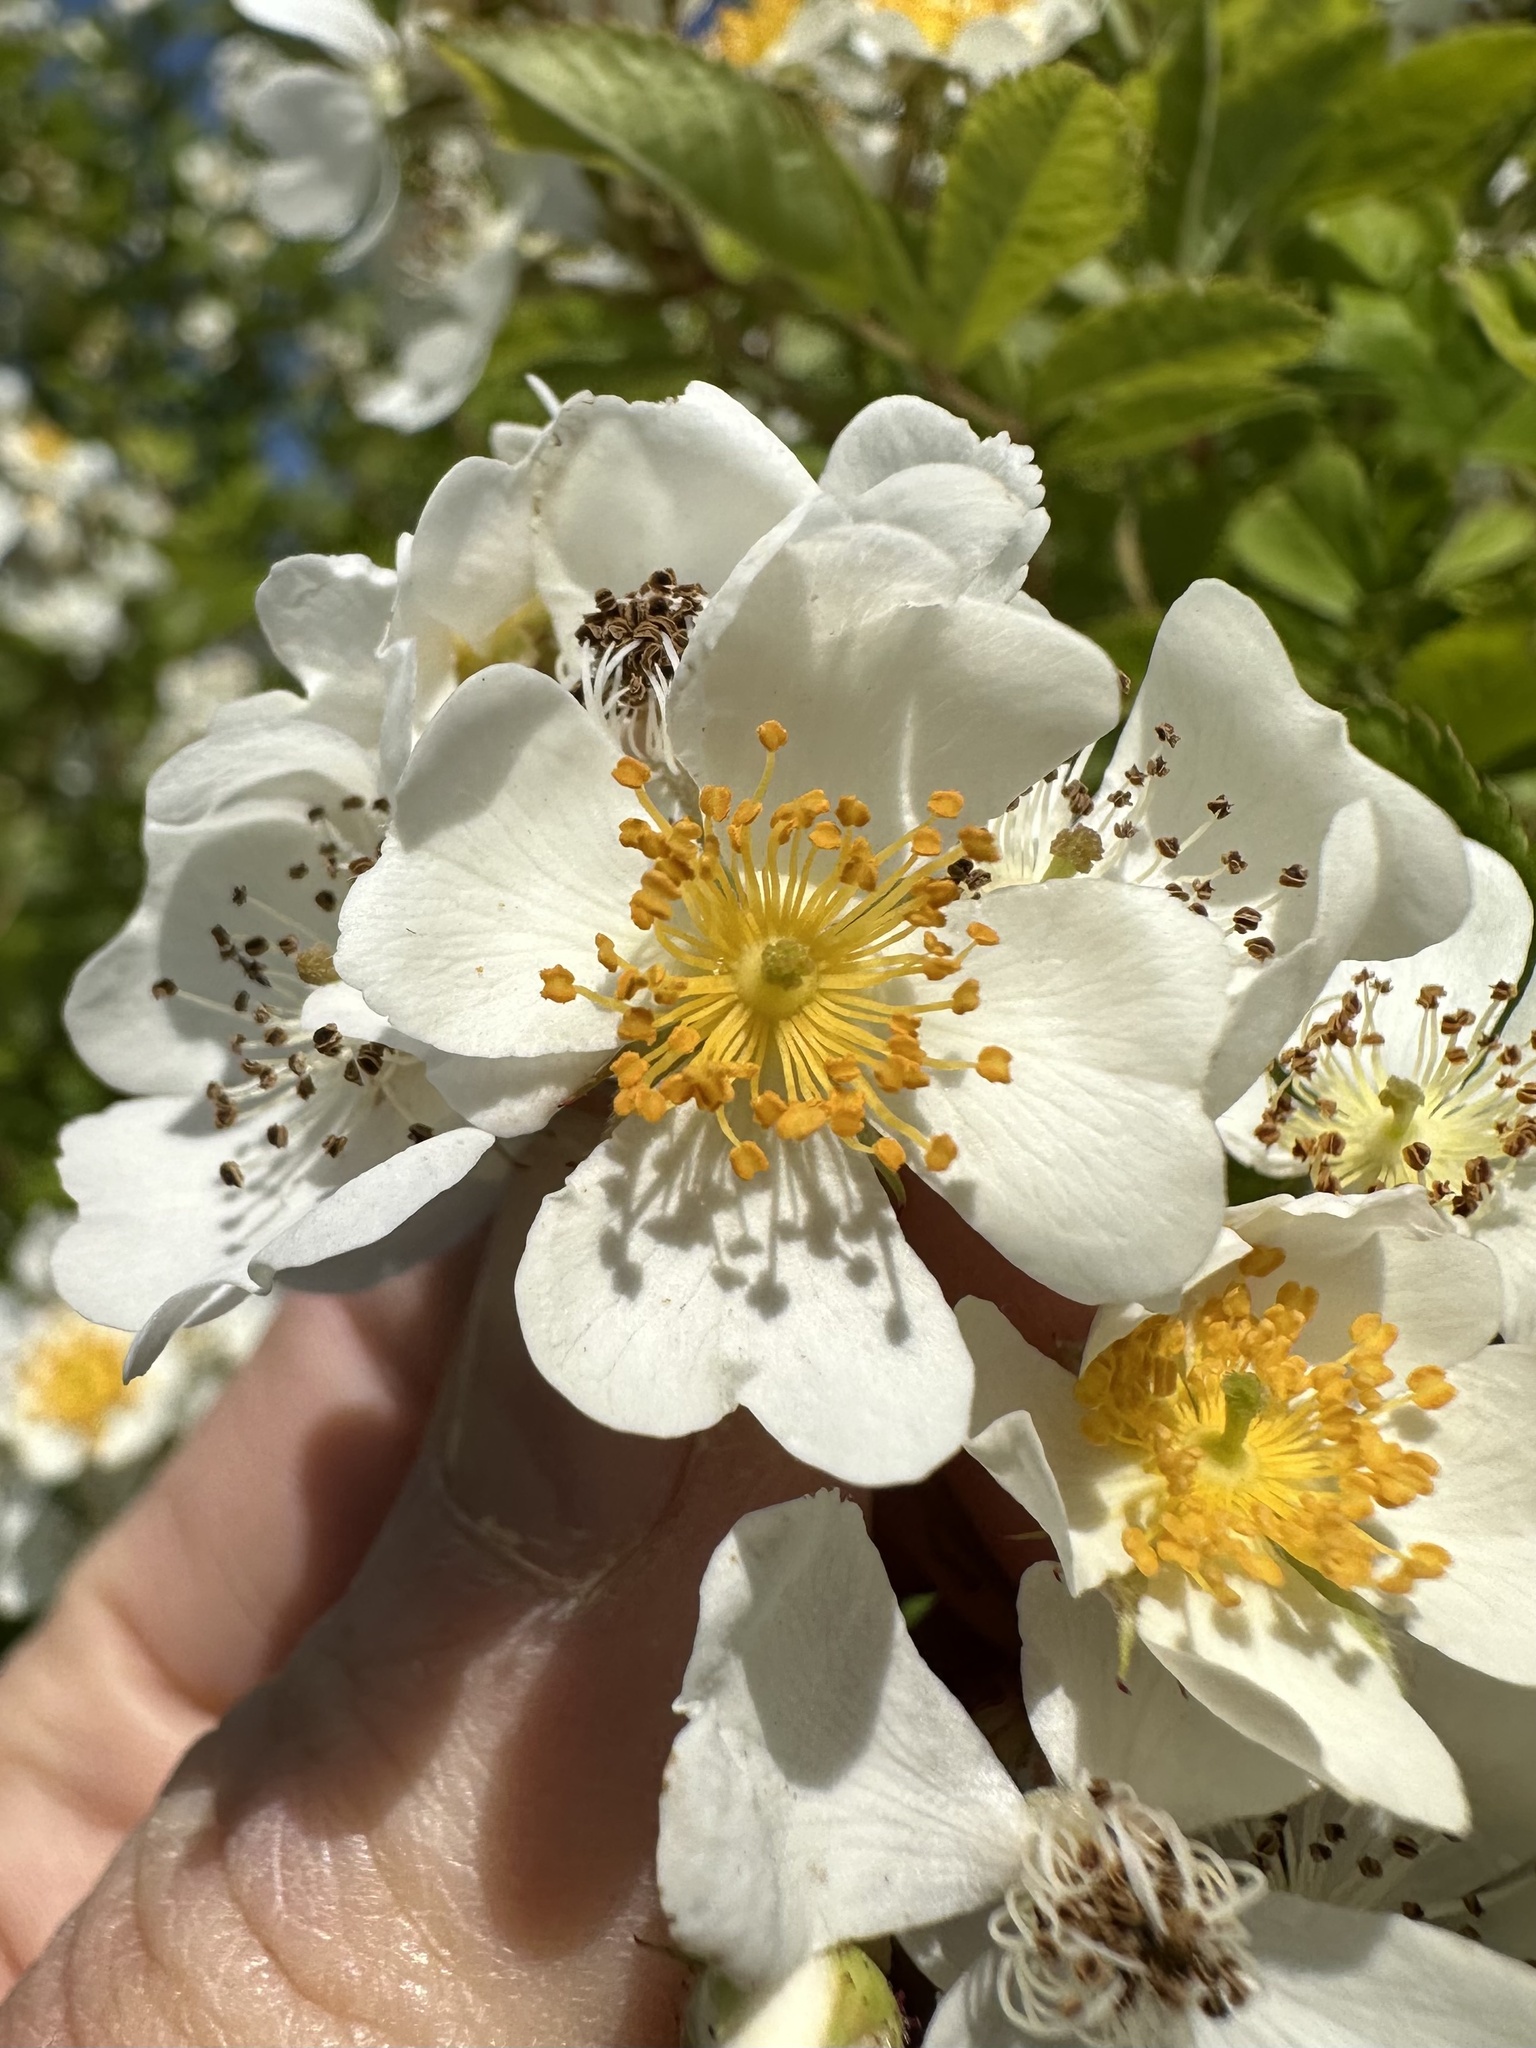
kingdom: Plantae
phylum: Tracheophyta
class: Magnoliopsida
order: Rosales
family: Rosaceae
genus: Rosa
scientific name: Rosa multiflora
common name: Multiflora rose
